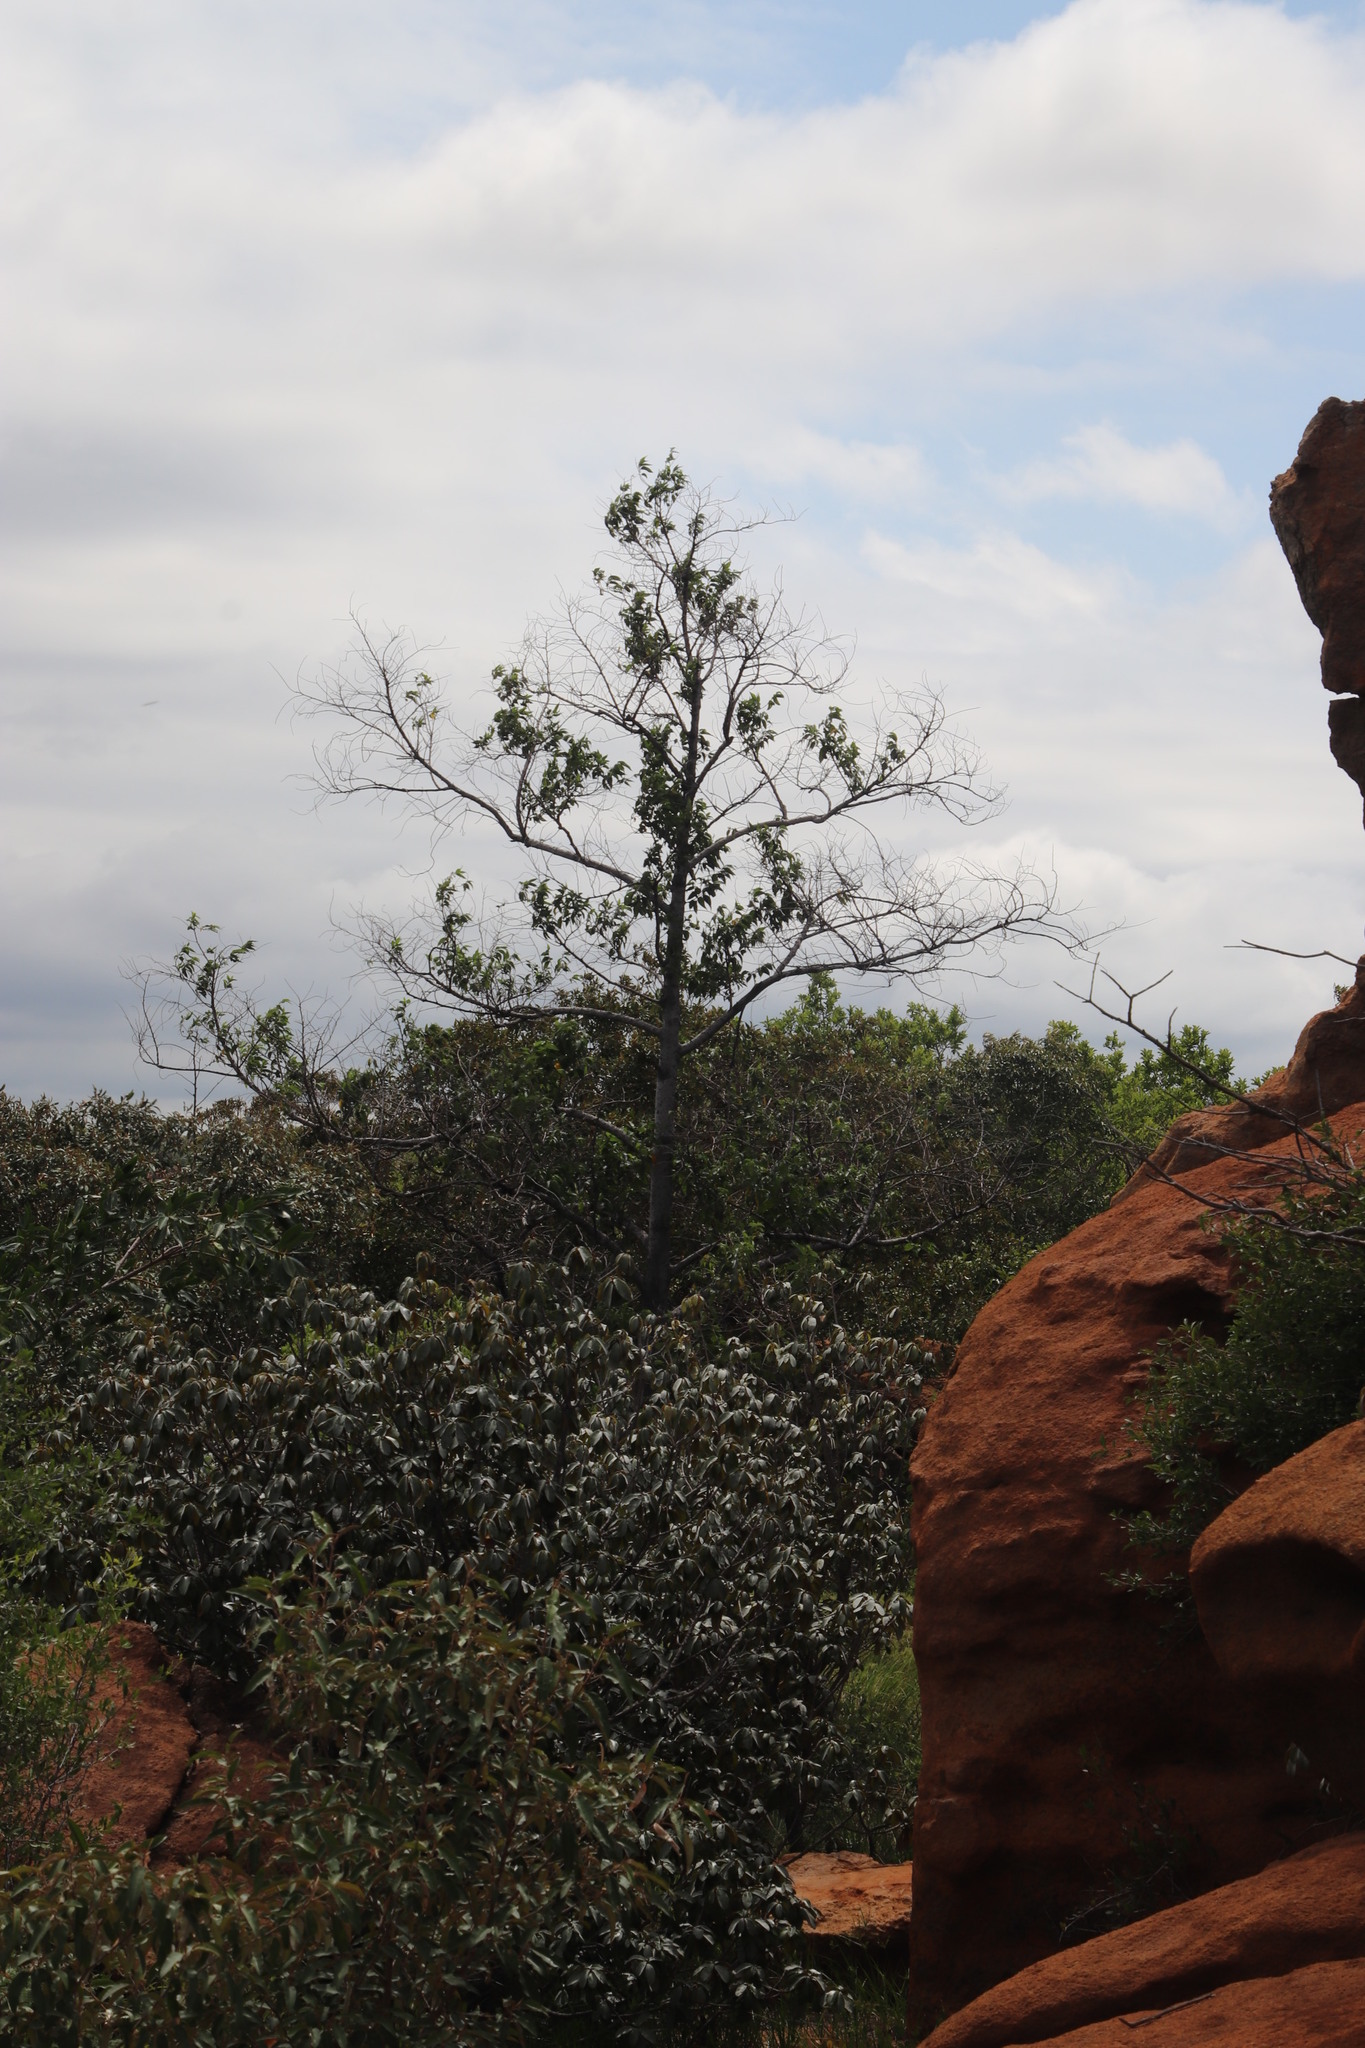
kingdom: Plantae
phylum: Tracheophyta
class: Magnoliopsida
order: Rosales
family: Cannabaceae
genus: Trema
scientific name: Trema orientale
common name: Indian charcoal tree
